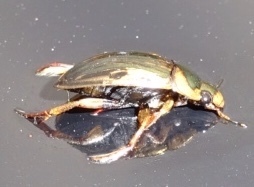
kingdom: Animalia
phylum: Arthropoda
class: Insecta
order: Coleoptera
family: Hydrophilidae
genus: Tropisternus
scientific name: Tropisternus collaris
